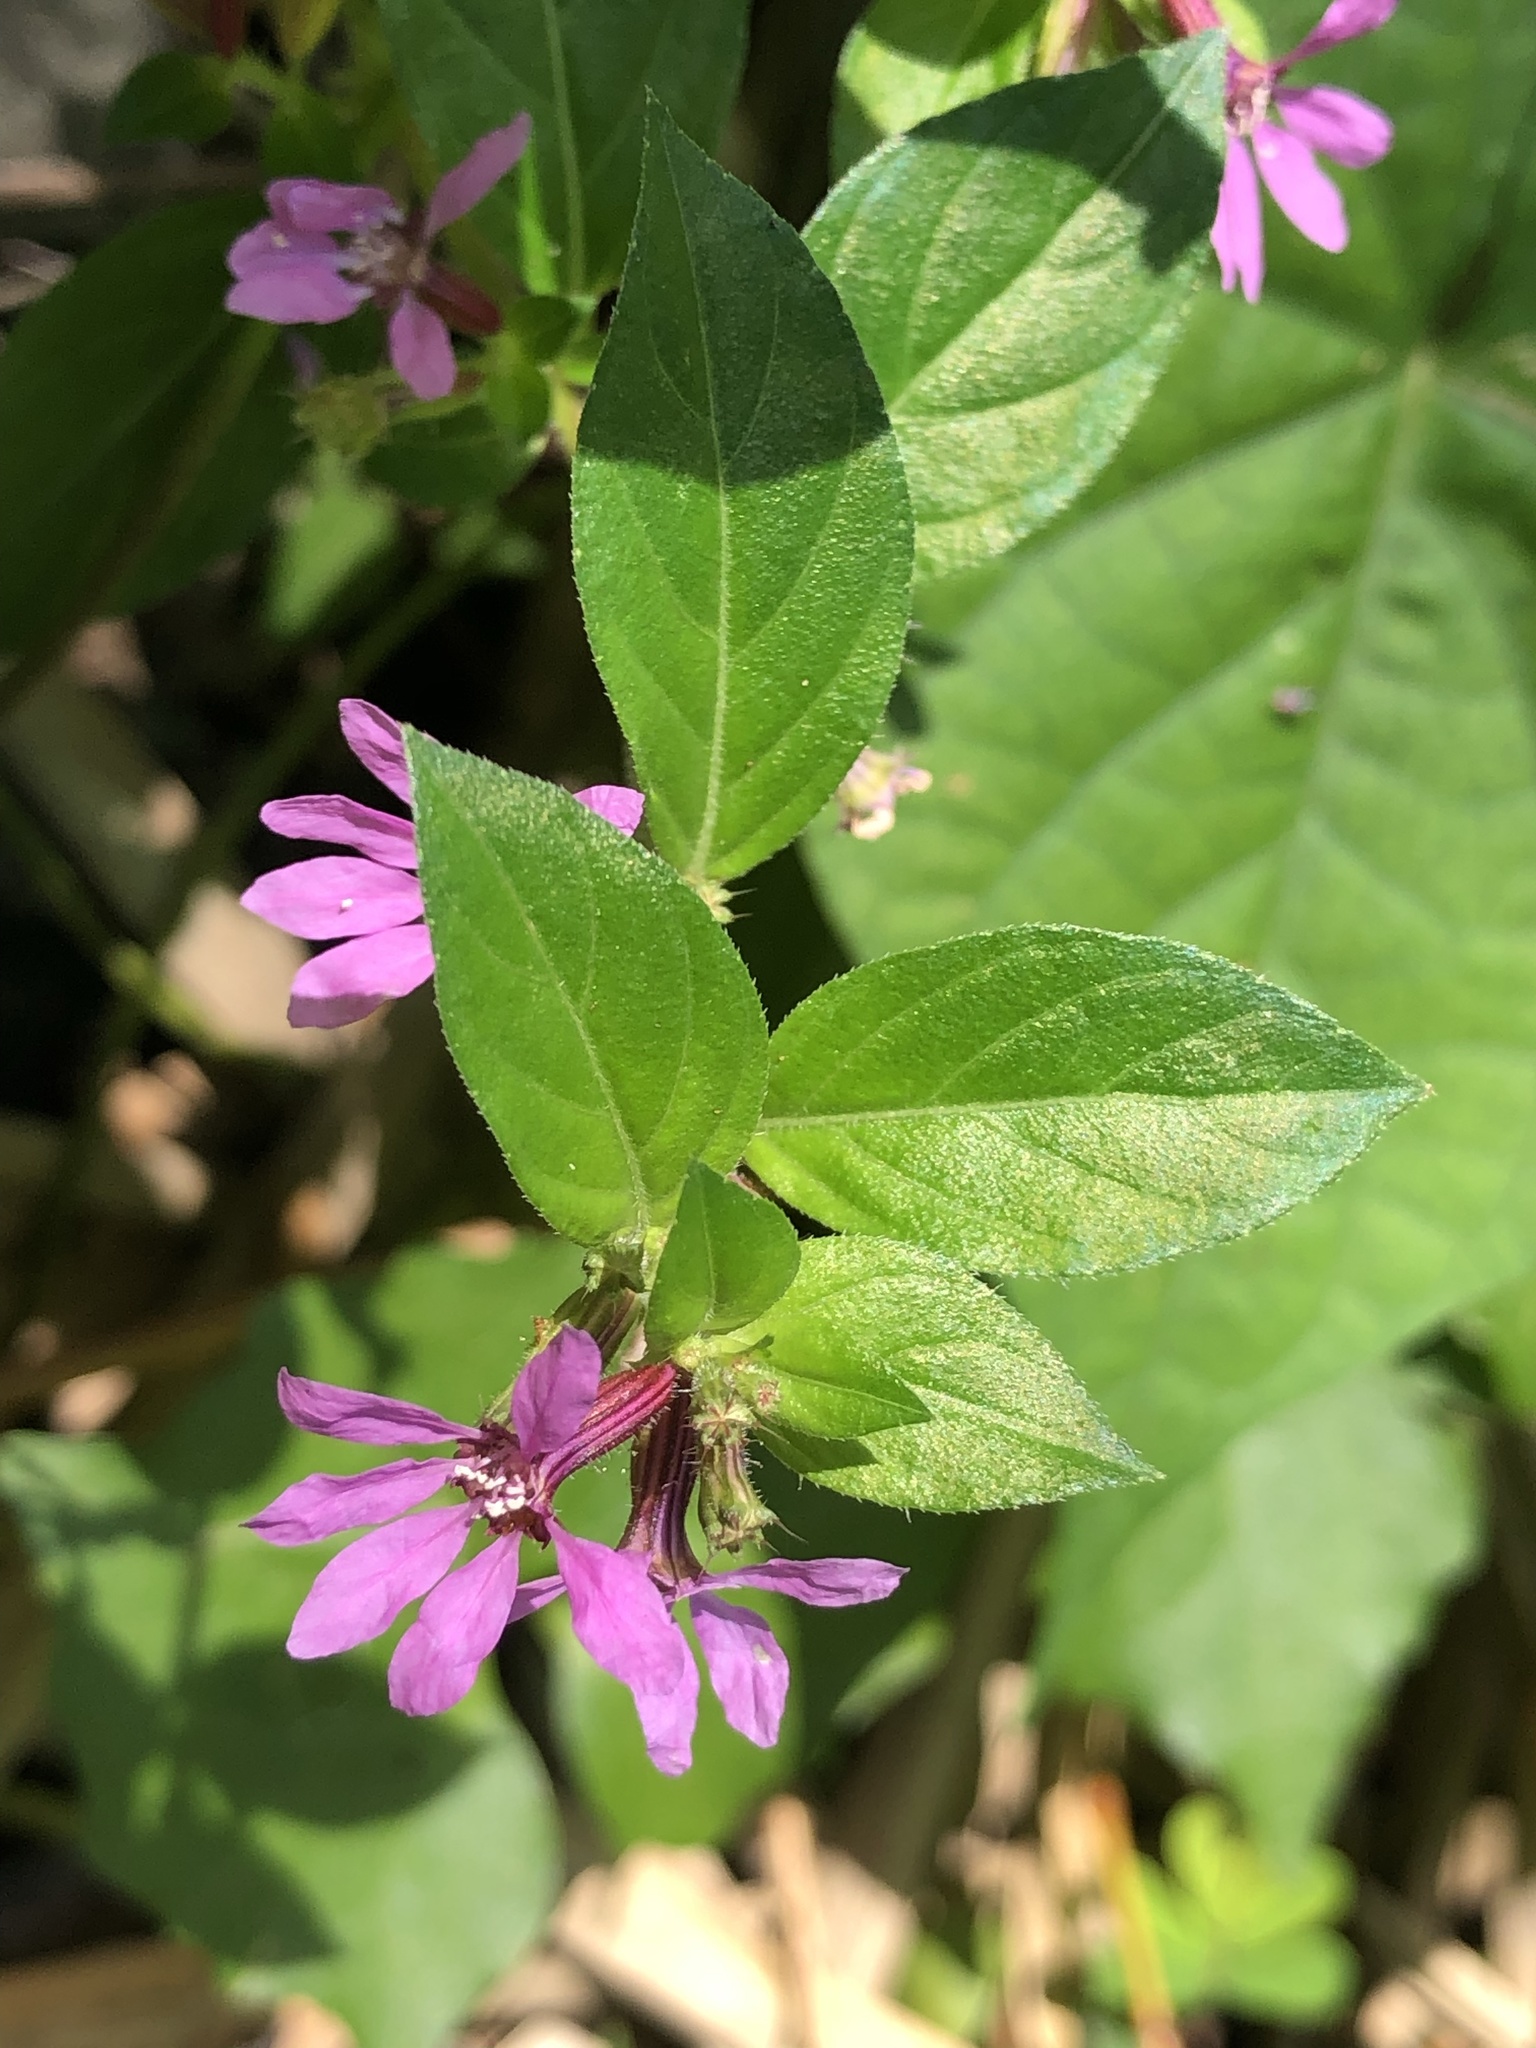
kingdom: Plantae
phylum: Tracheophyta
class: Magnoliopsida
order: Myrtales
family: Lythraceae
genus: Cuphea
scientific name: Cuphea strigulosa
